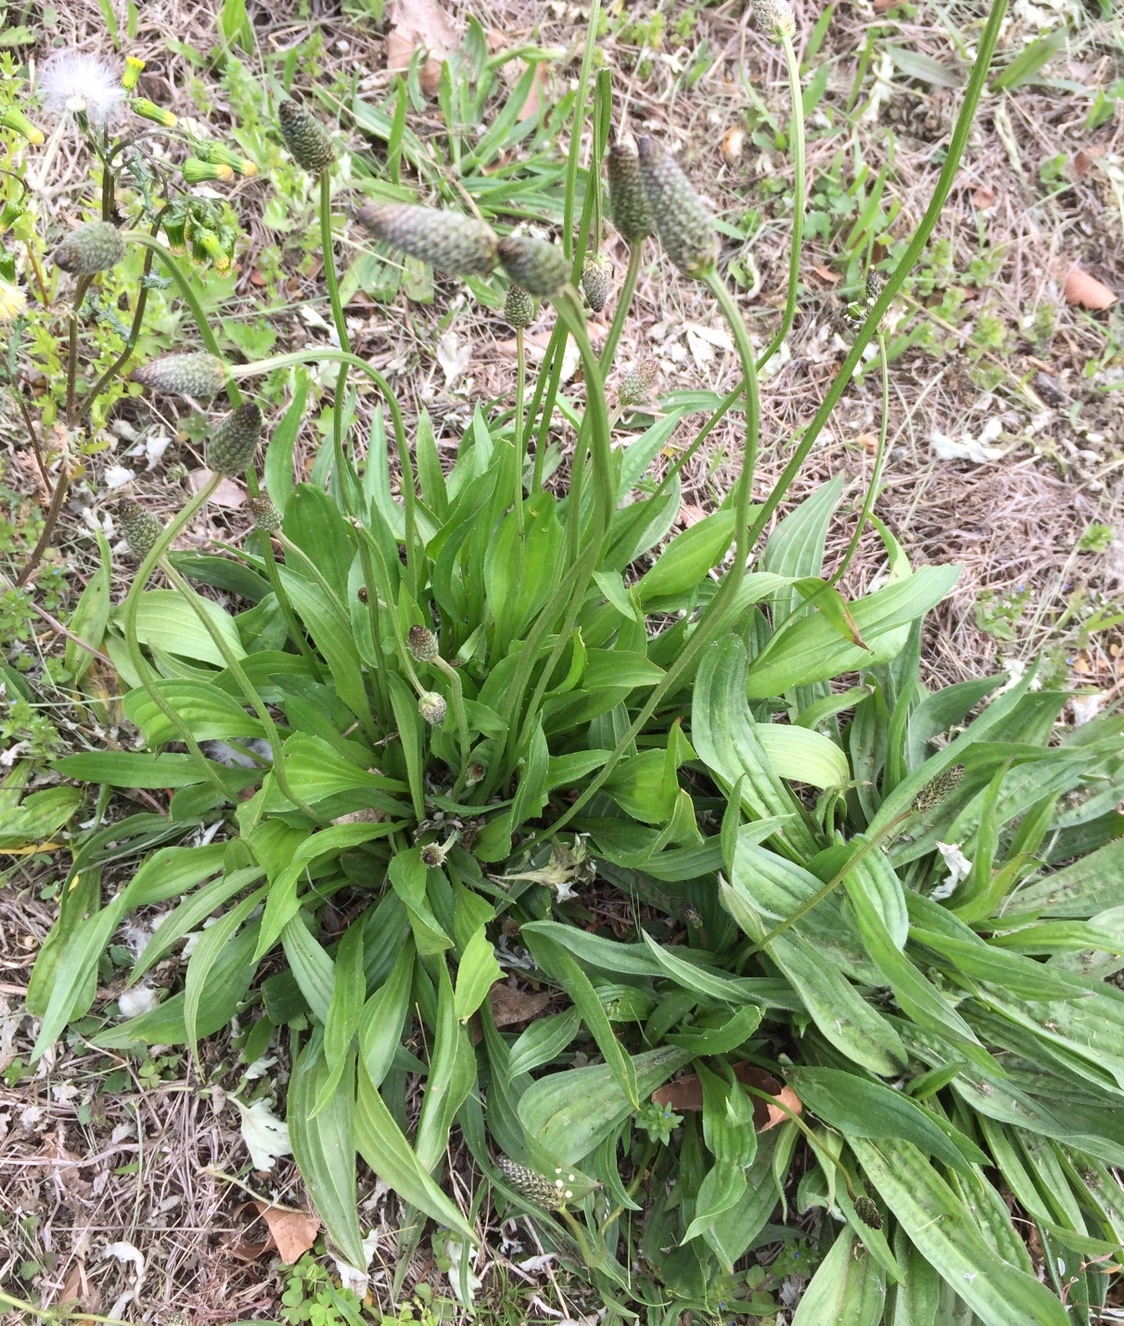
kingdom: Plantae
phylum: Tracheophyta
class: Magnoliopsida
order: Lamiales
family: Plantaginaceae
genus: Plantago
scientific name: Plantago lanceolata
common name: Ribwort plantain
